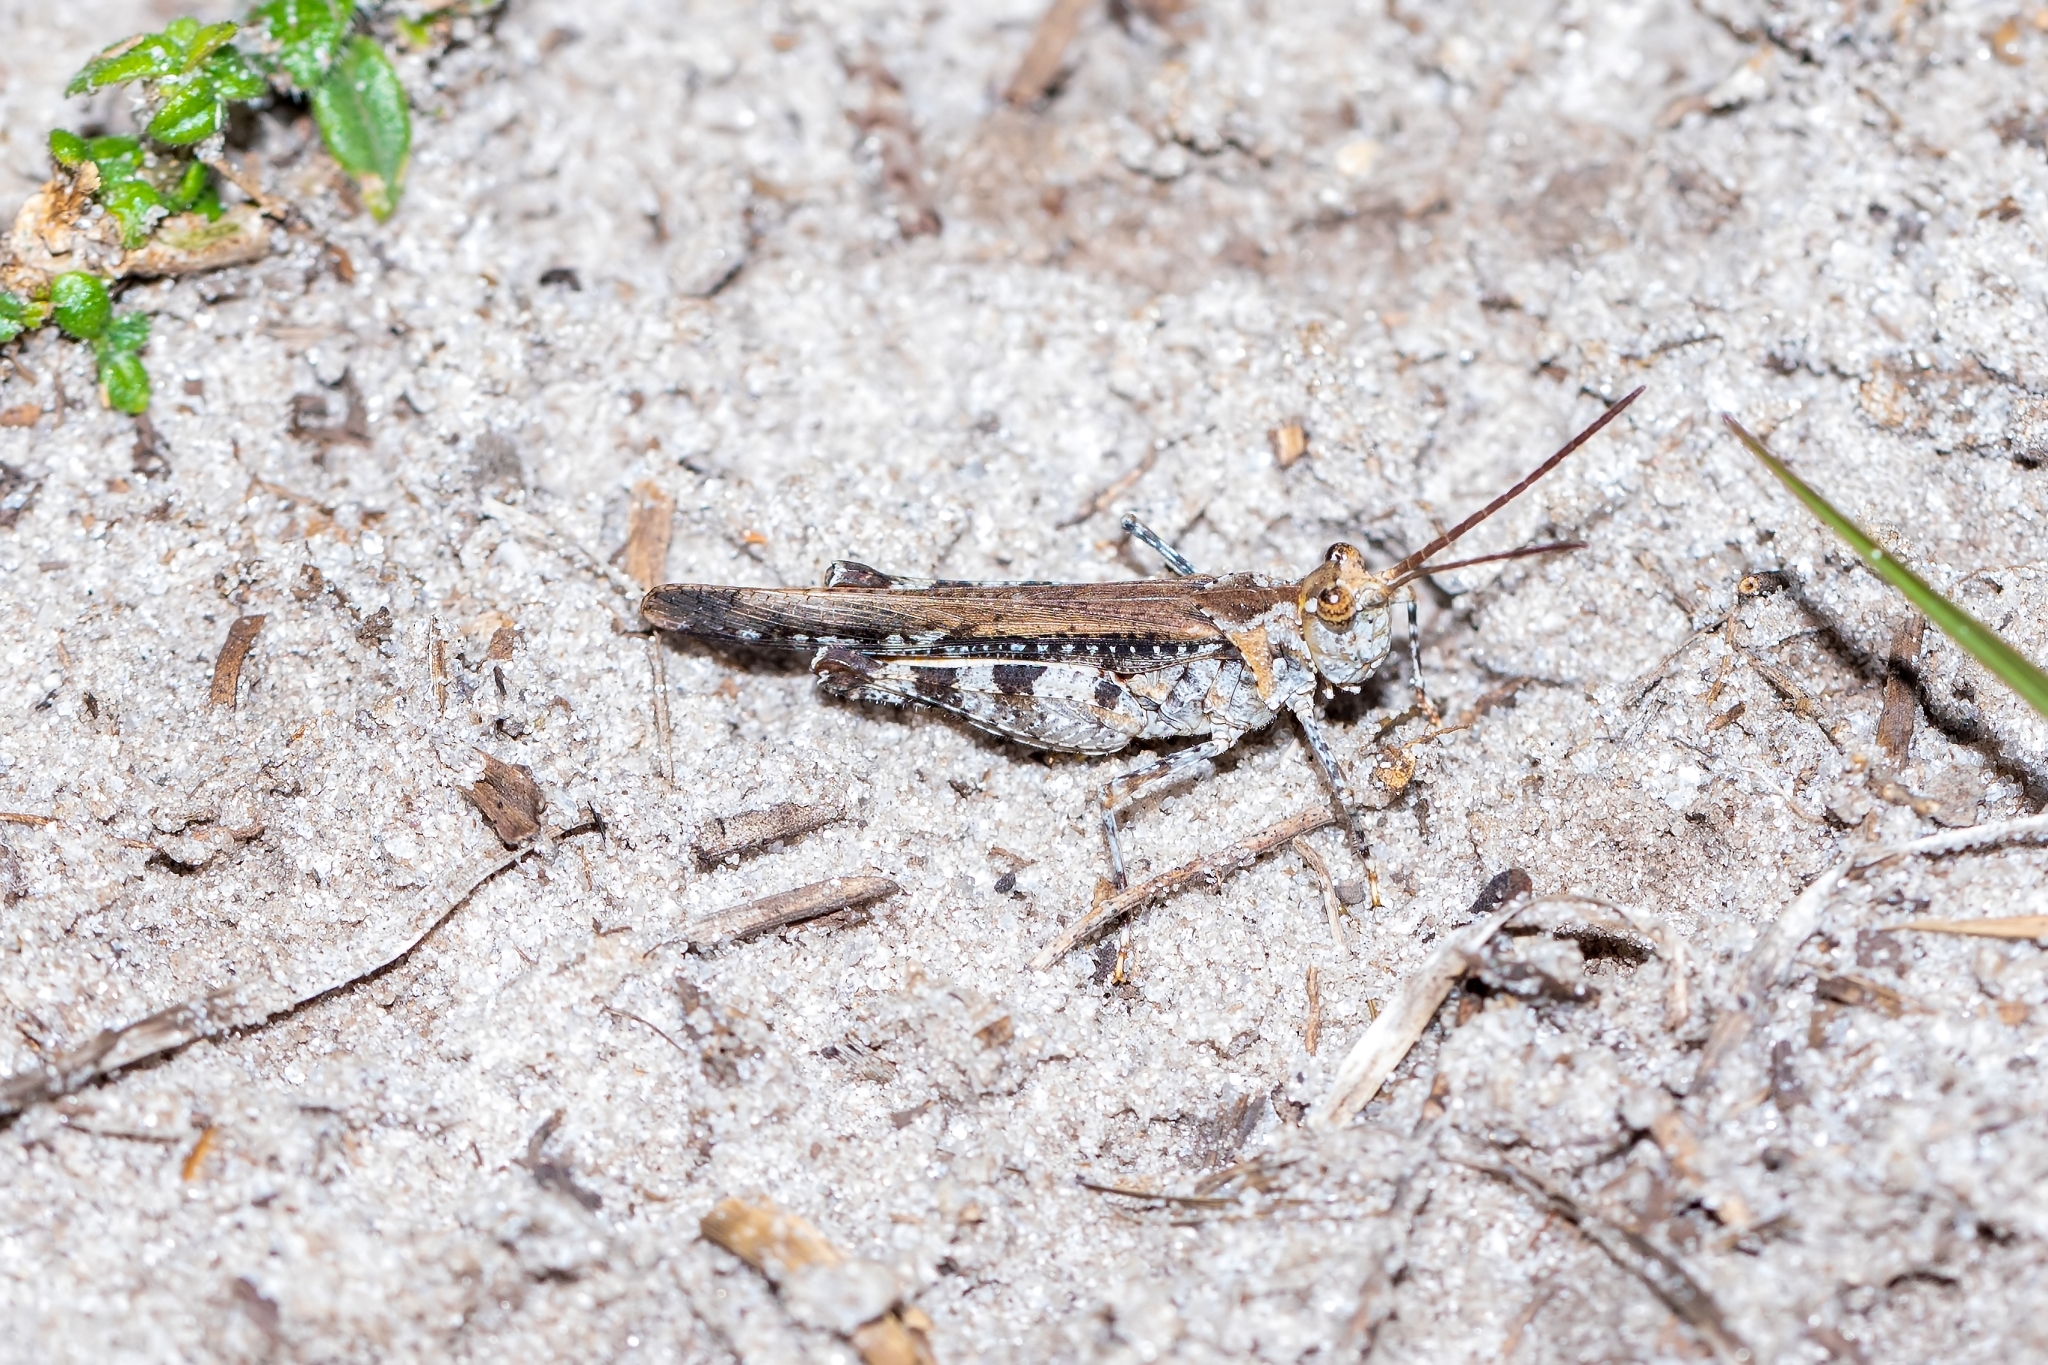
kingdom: Animalia
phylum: Arthropoda
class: Insecta
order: Orthoptera
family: Acrididae
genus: Psinidia
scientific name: Psinidia fenestralis
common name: Long-horned locust
